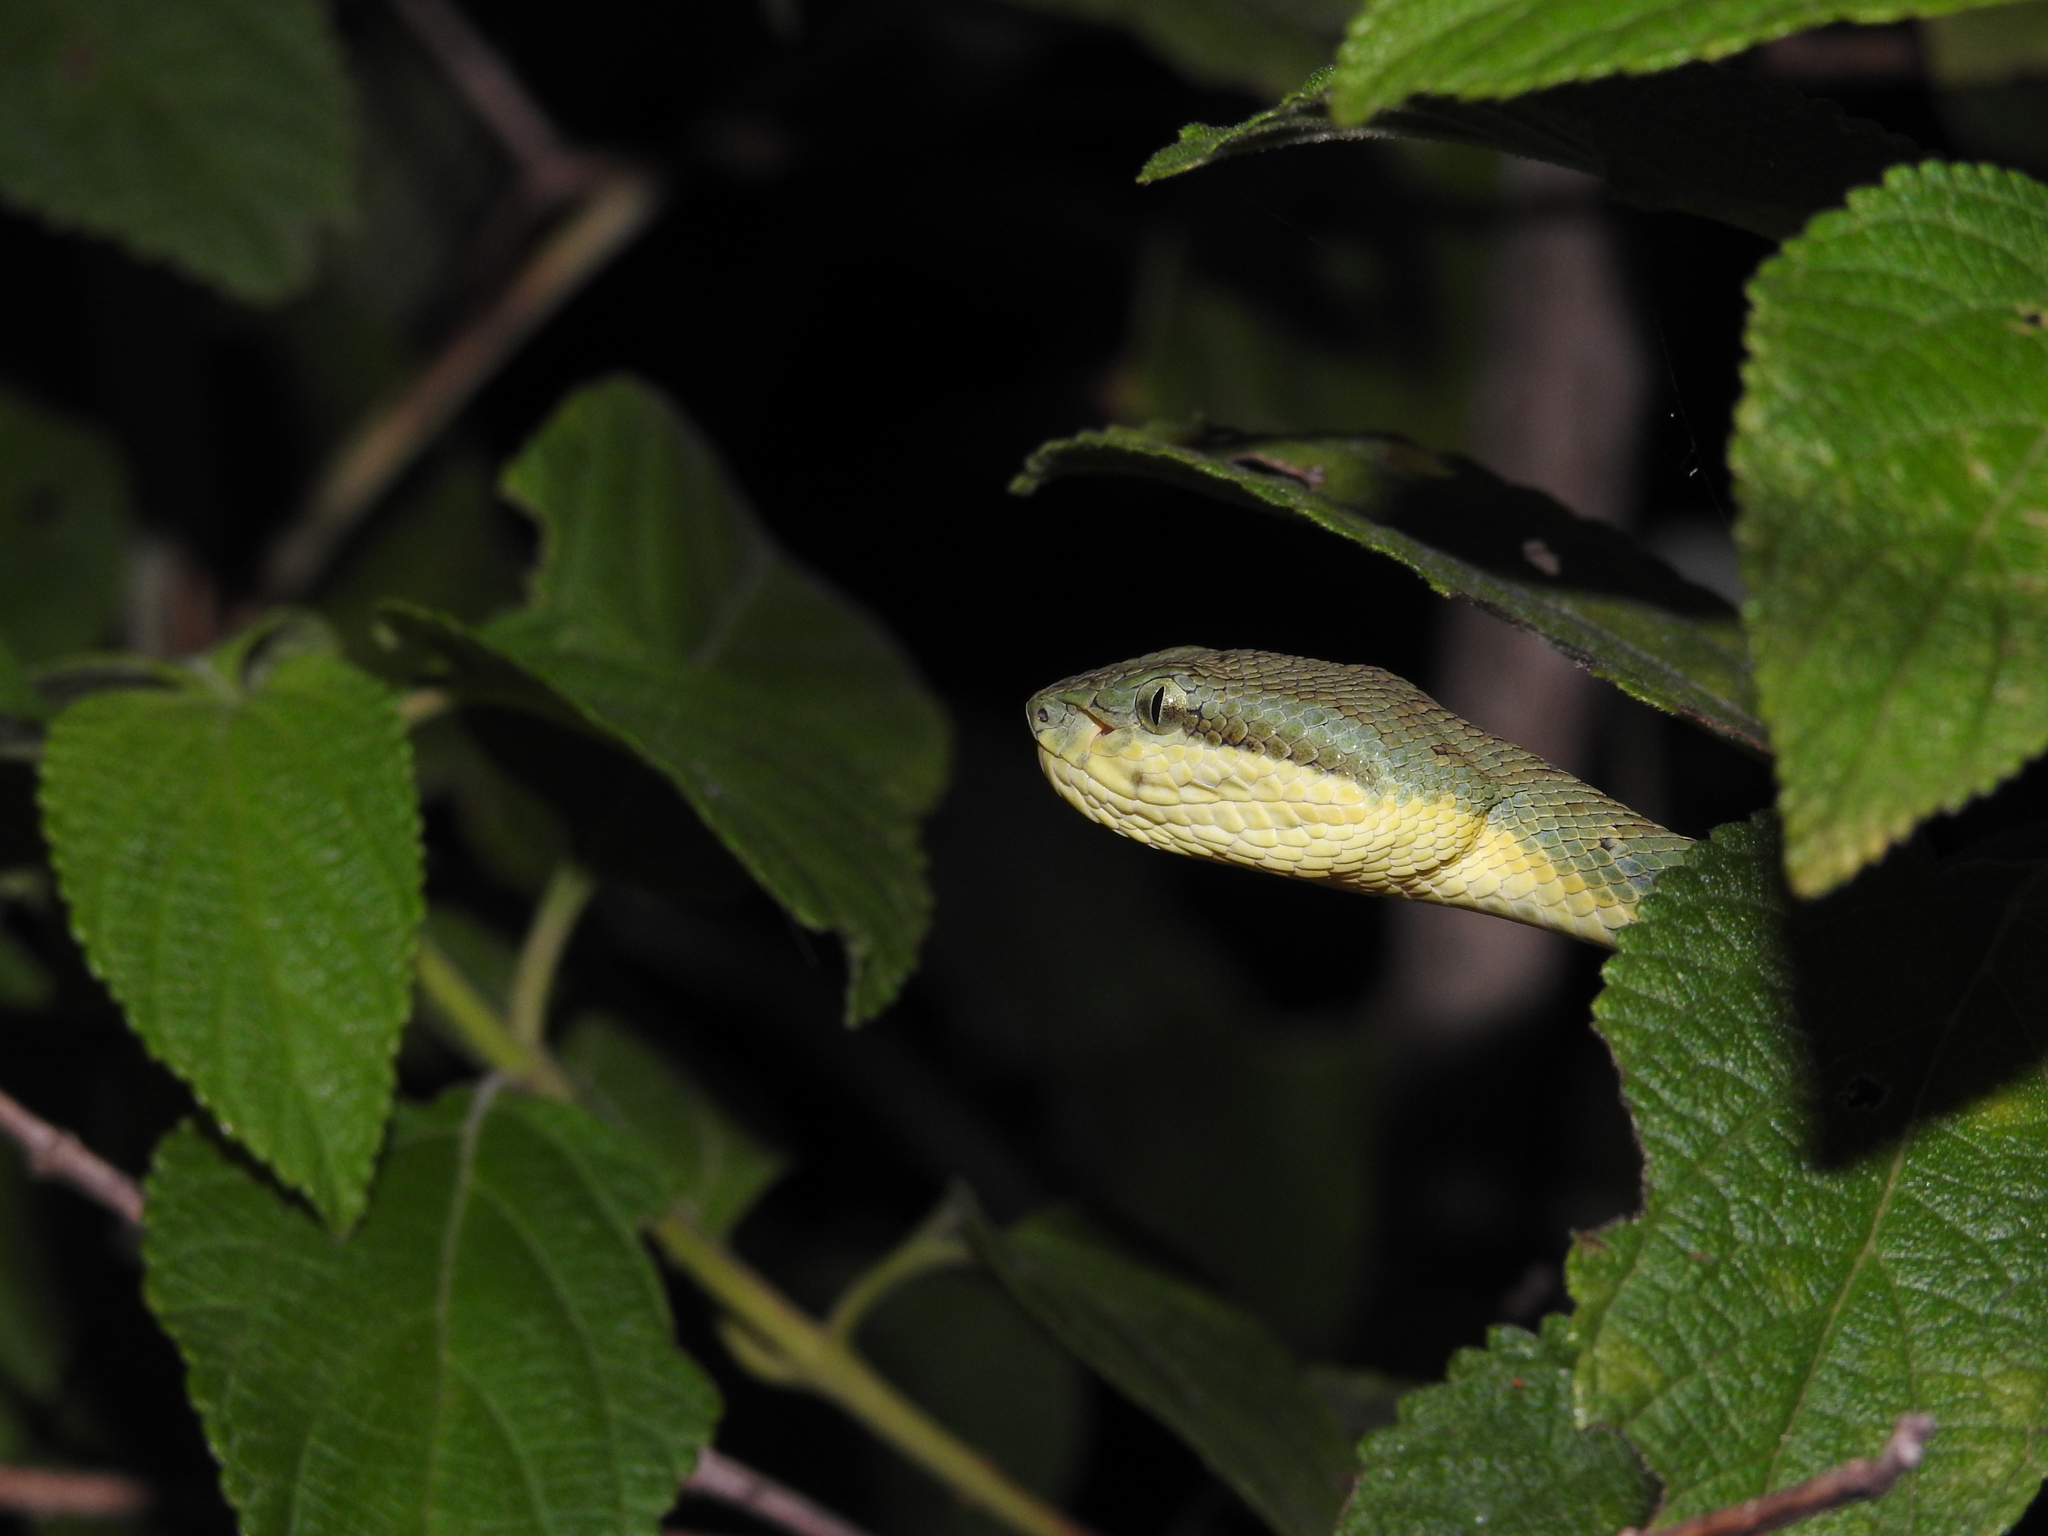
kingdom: Animalia
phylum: Chordata
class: Squamata
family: Viperidae
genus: Craspedocephalus
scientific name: Craspedocephalus gramineus
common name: Common bamboo viper
